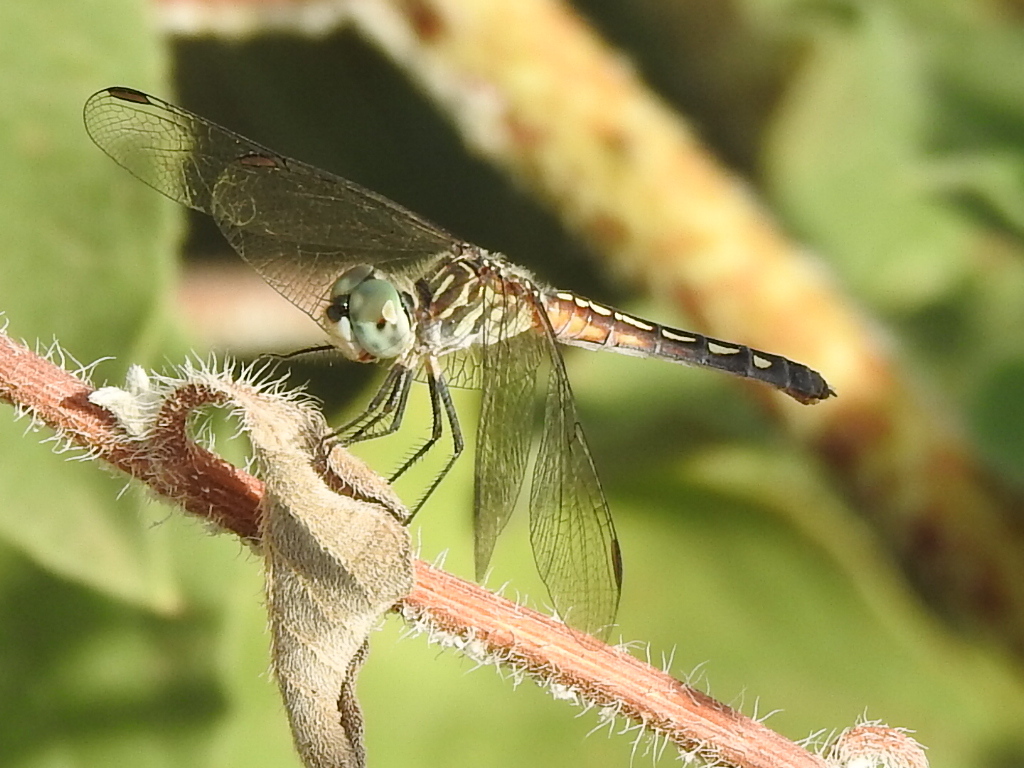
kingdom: Animalia
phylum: Arthropoda
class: Insecta
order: Odonata
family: Libellulidae
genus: Pachydiplax
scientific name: Pachydiplax longipennis
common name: Blue dasher
